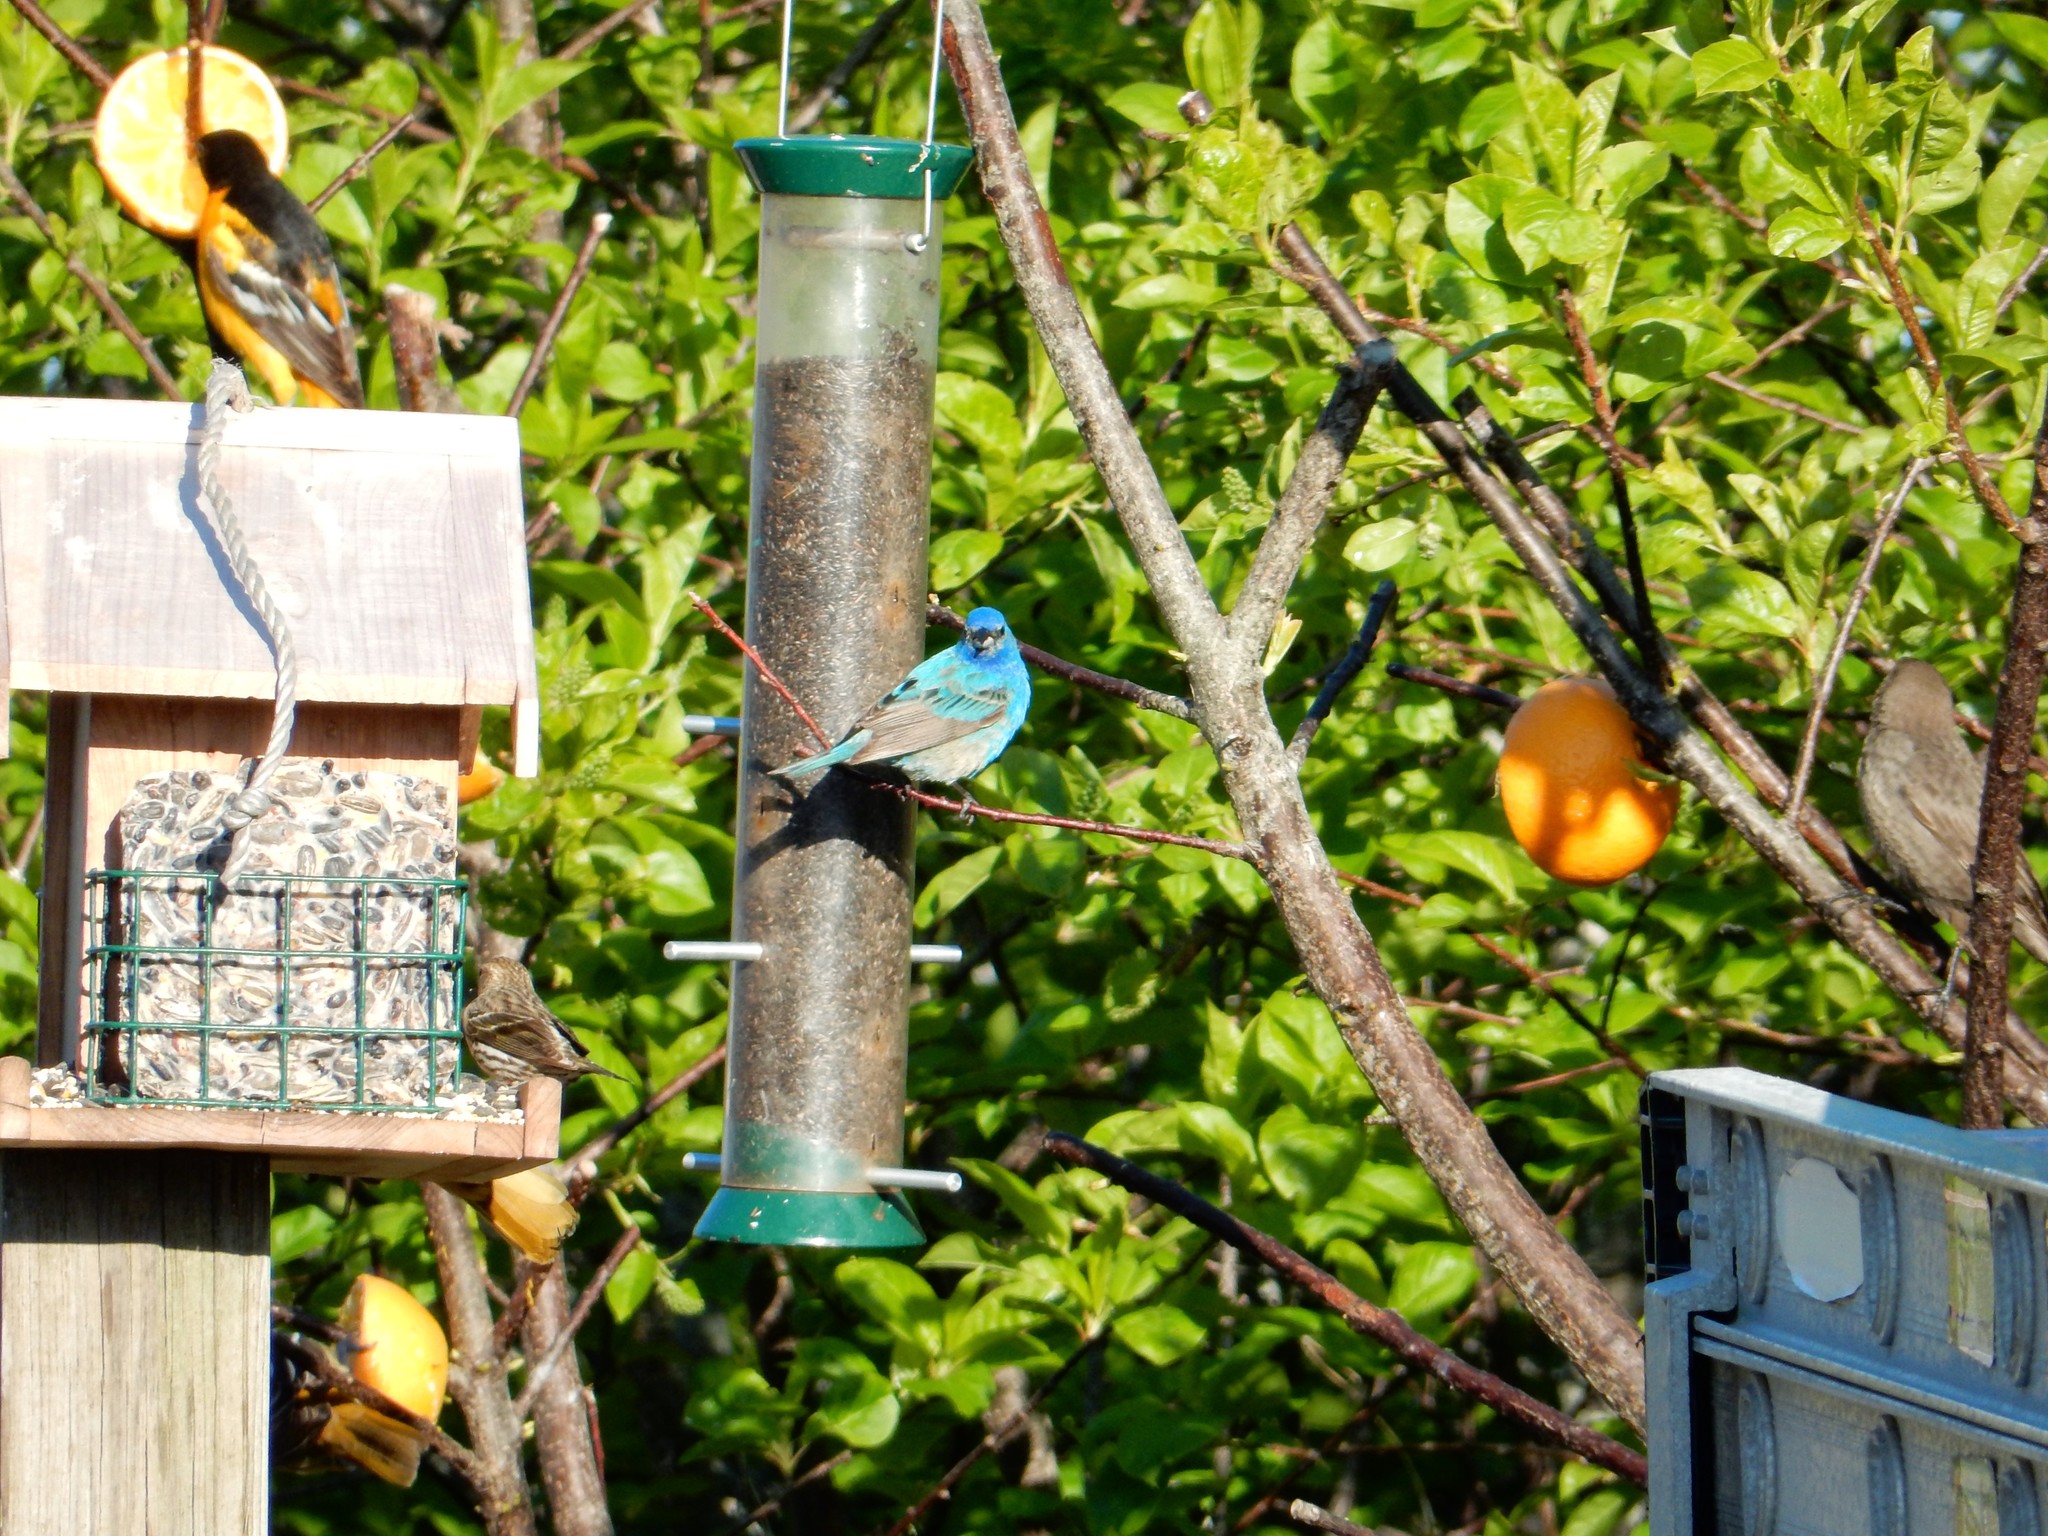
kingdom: Animalia
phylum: Chordata
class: Aves
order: Passeriformes
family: Cardinalidae
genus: Passerina
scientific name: Passerina cyanea
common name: Indigo bunting
